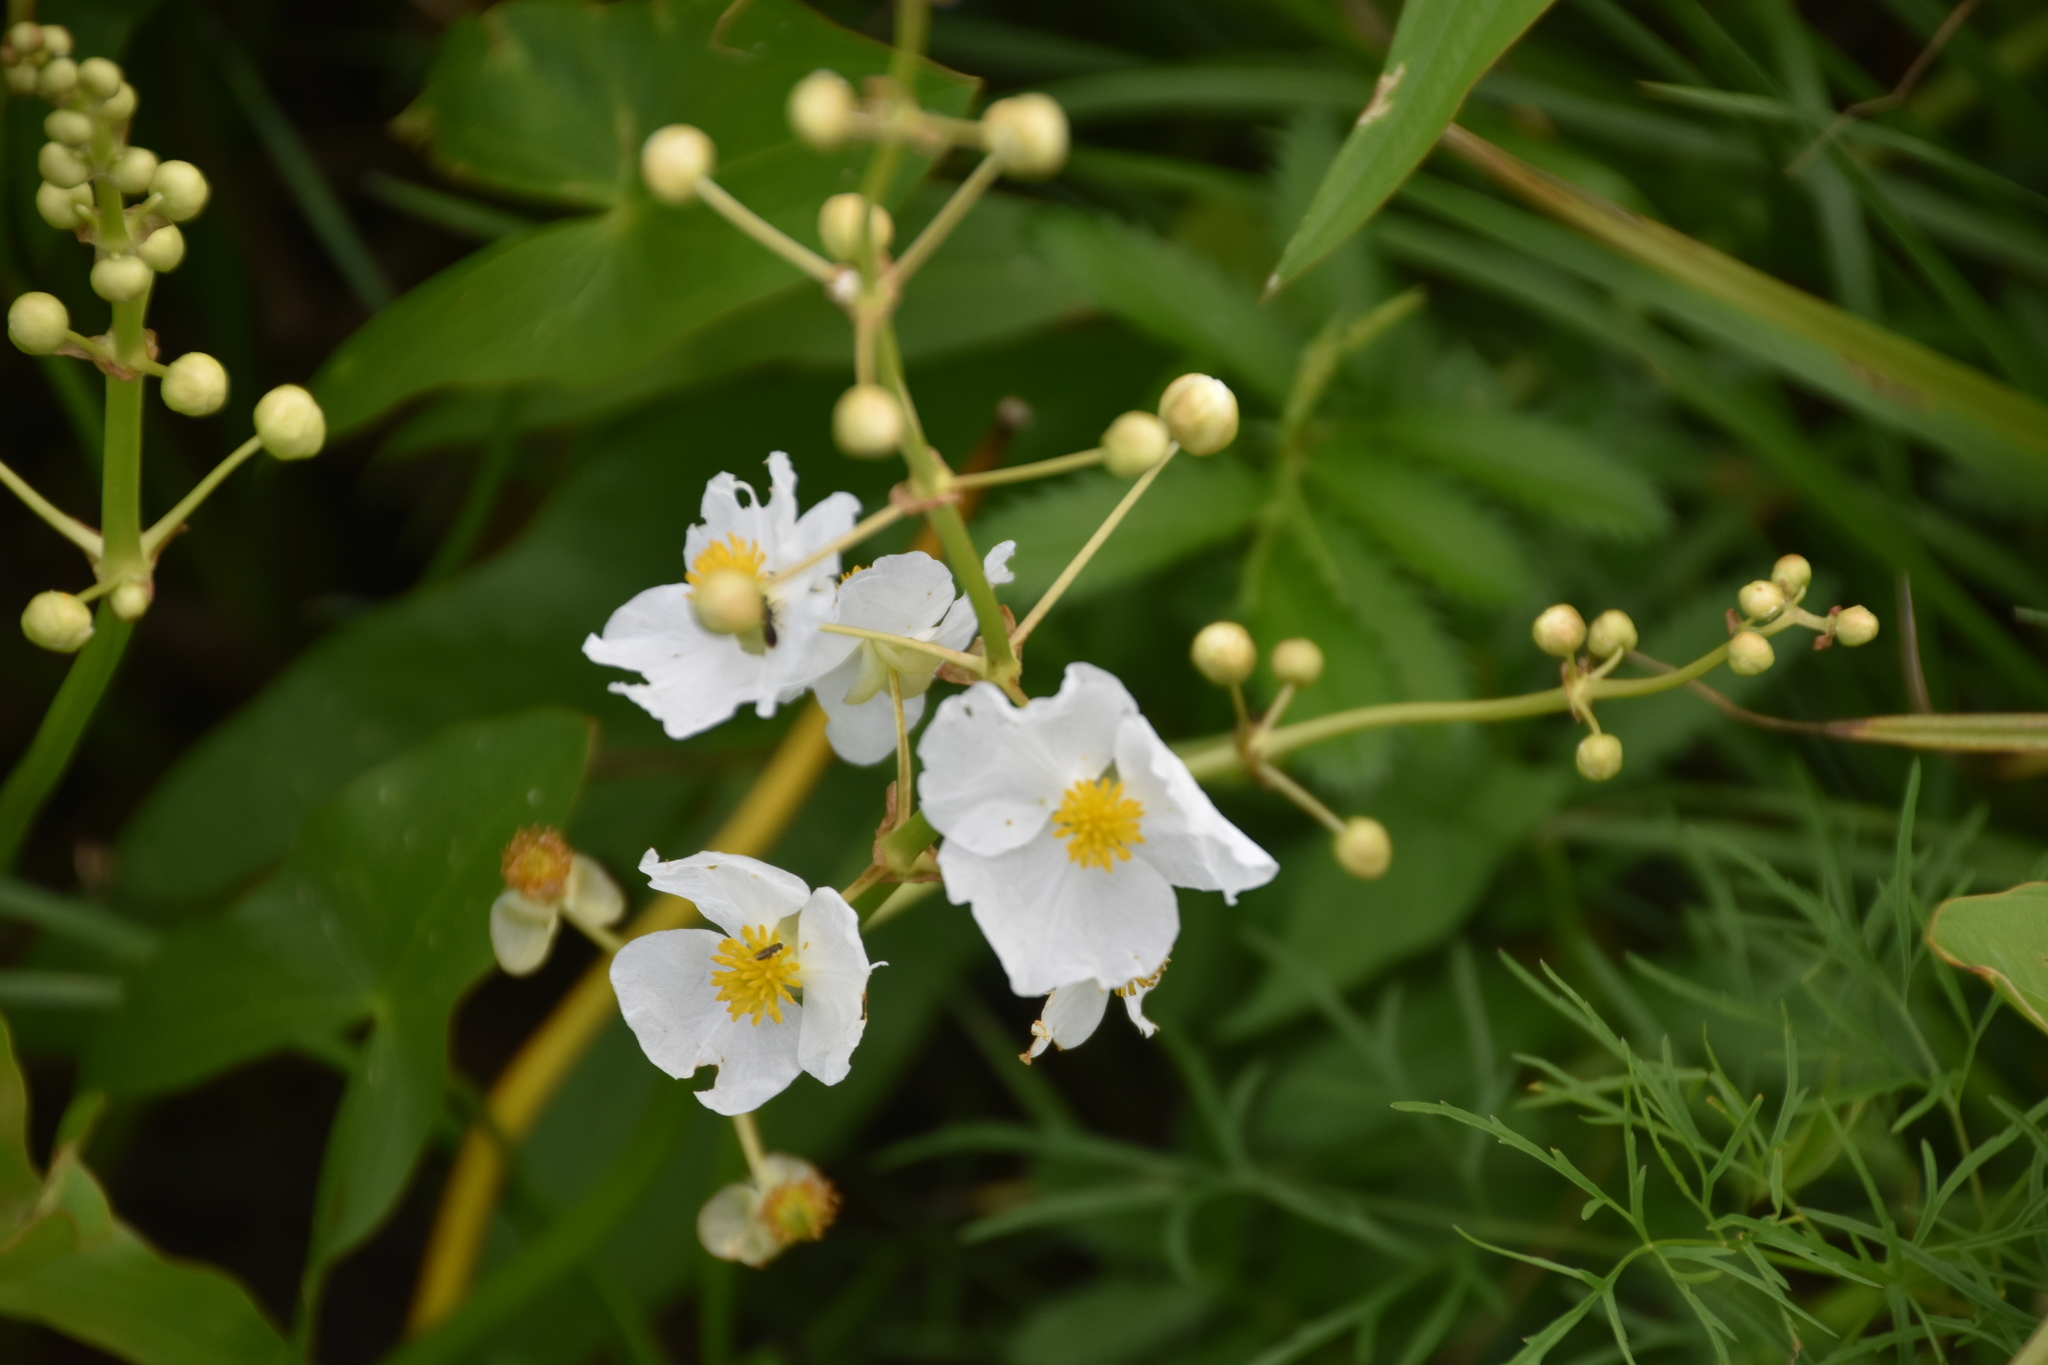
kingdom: Plantae
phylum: Tracheophyta
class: Liliopsida
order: Alismatales
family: Alismataceae
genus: Sagittaria
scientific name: Sagittaria latifolia
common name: Duck-potato
